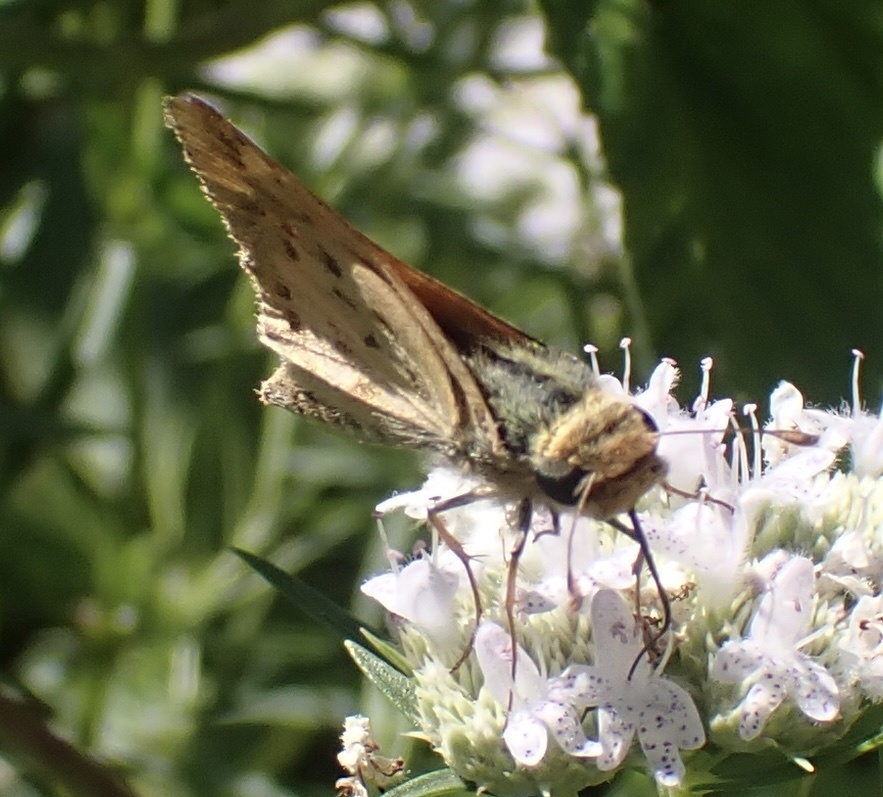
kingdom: Animalia
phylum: Arthropoda
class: Insecta
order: Lepidoptera
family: Hesperiidae
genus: Hylephila
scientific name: Hylephila phyleus
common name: Fiery skipper
